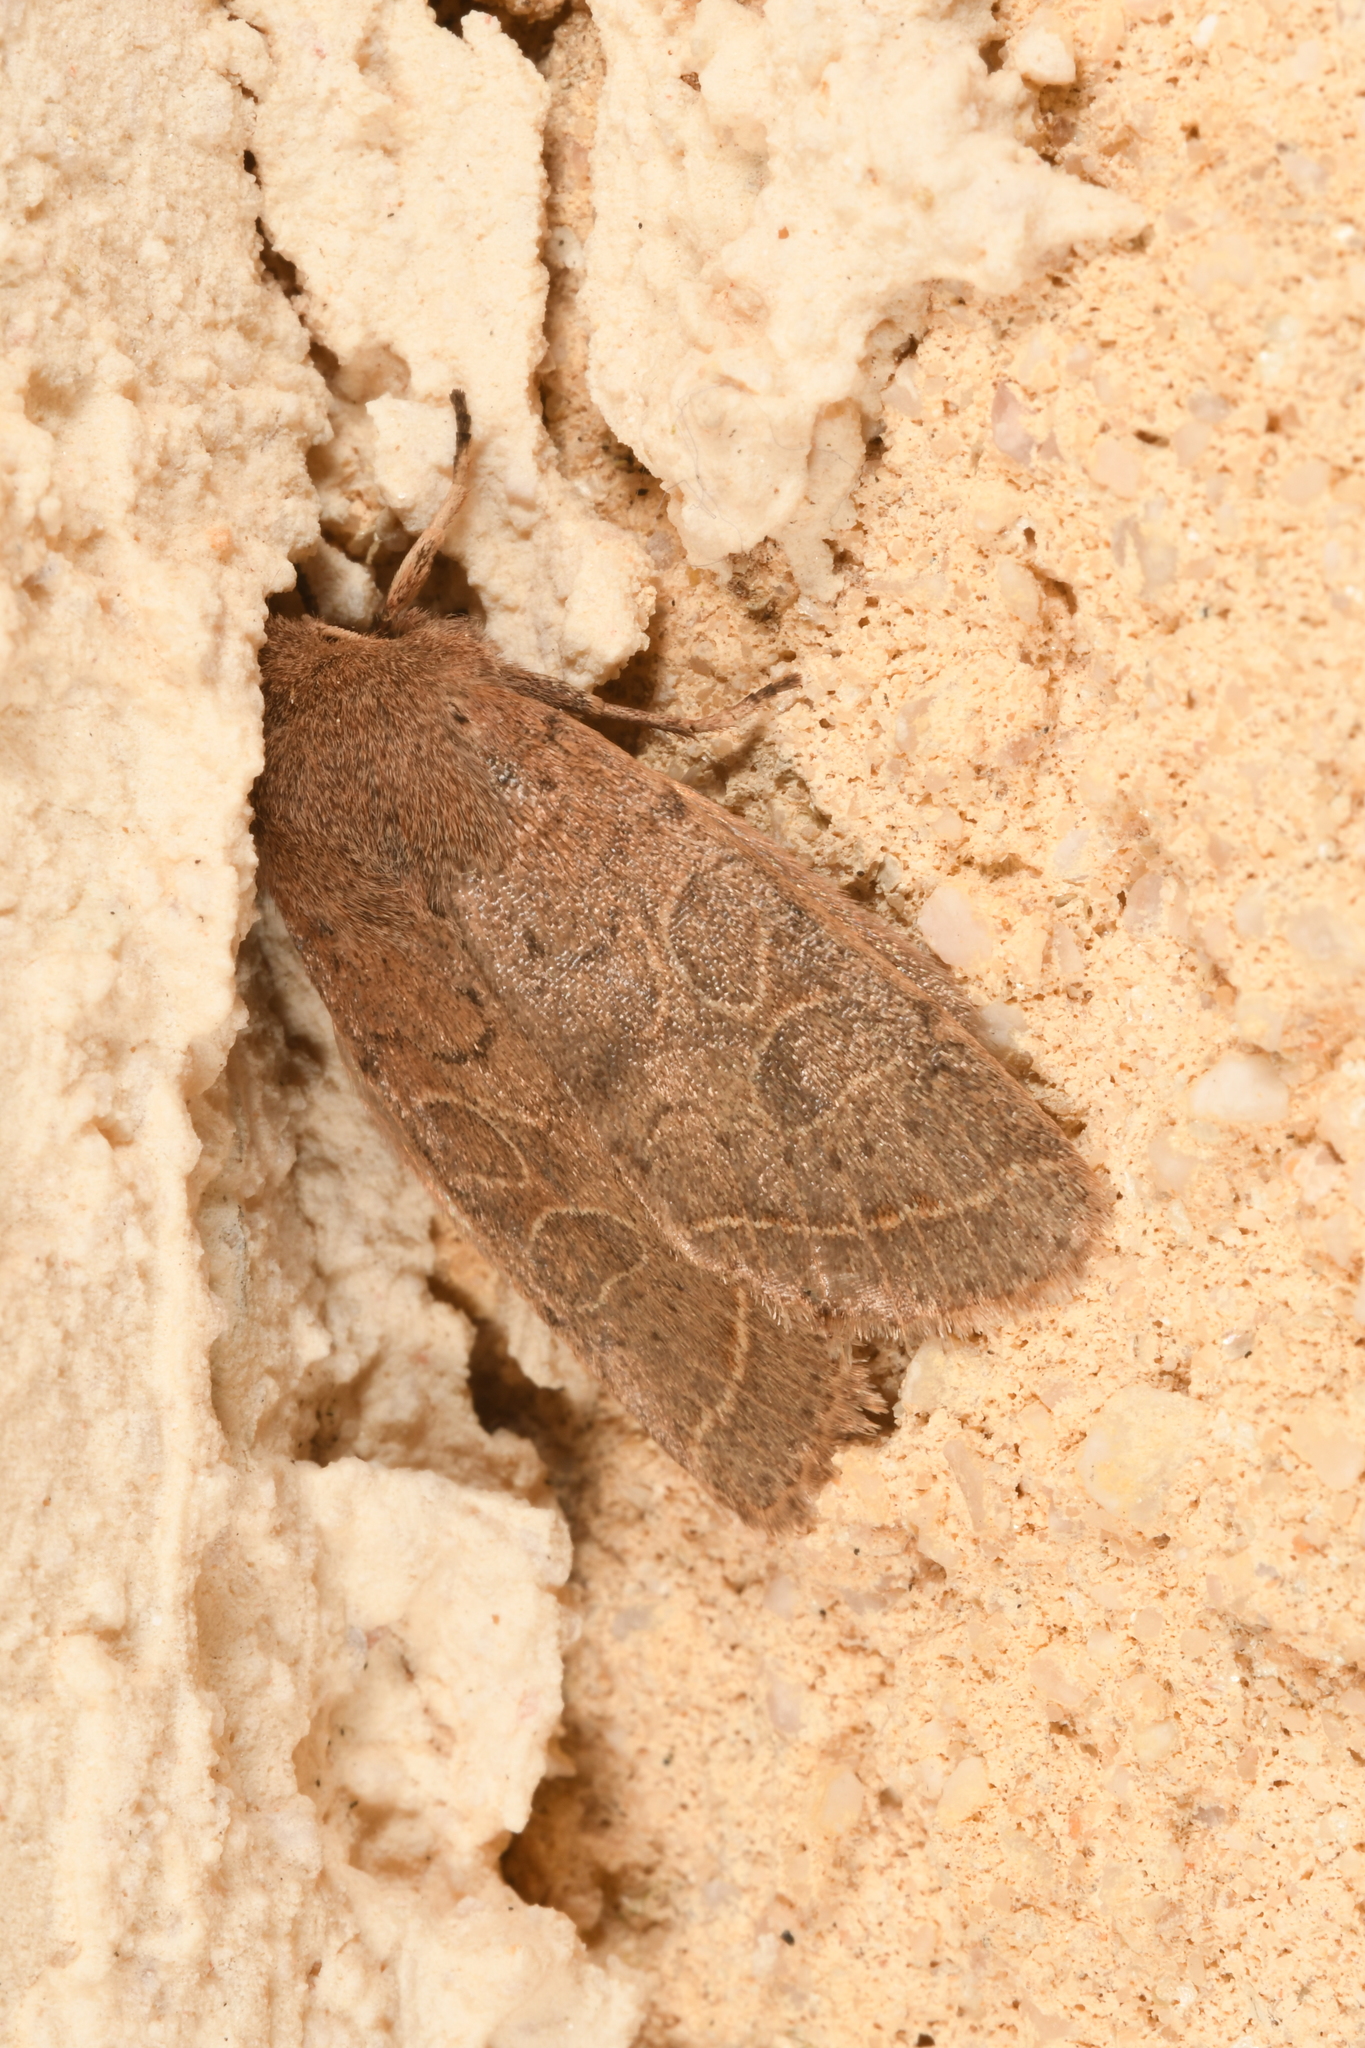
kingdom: Animalia
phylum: Arthropoda
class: Insecta
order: Lepidoptera
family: Noctuidae
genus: Orthosia
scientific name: Orthosia cerasi
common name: Common quaker
